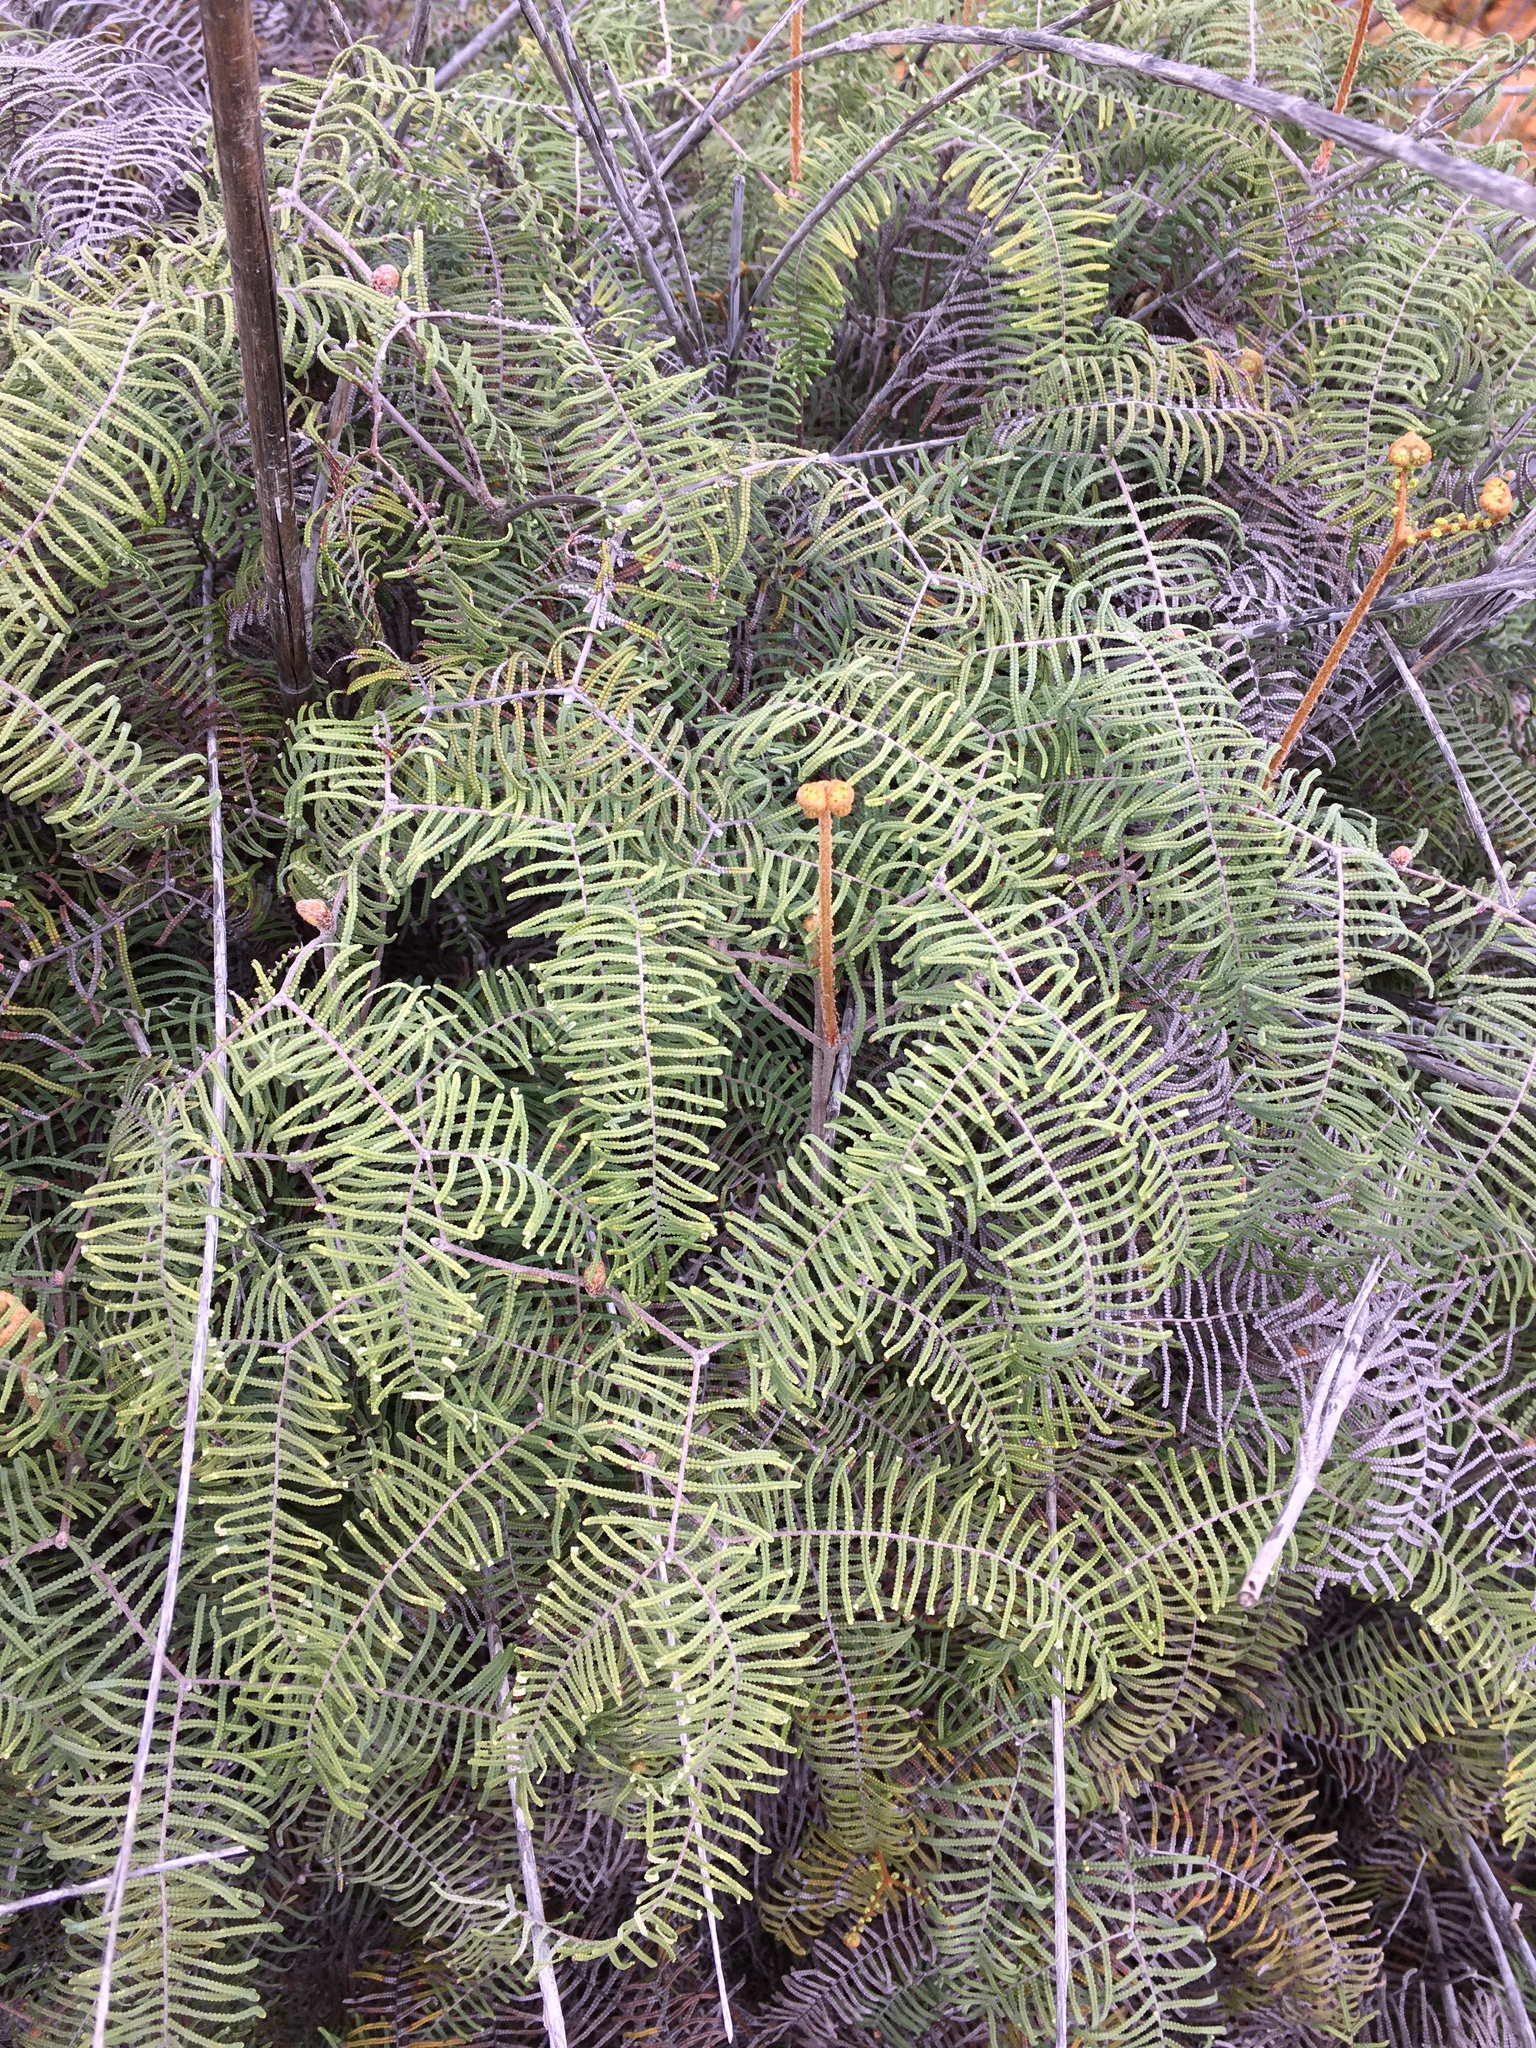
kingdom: Plantae
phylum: Tracheophyta
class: Polypodiopsida
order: Gleicheniales
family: Gleicheniaceae
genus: Gleichenia
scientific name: Gleichenia dicarpa
